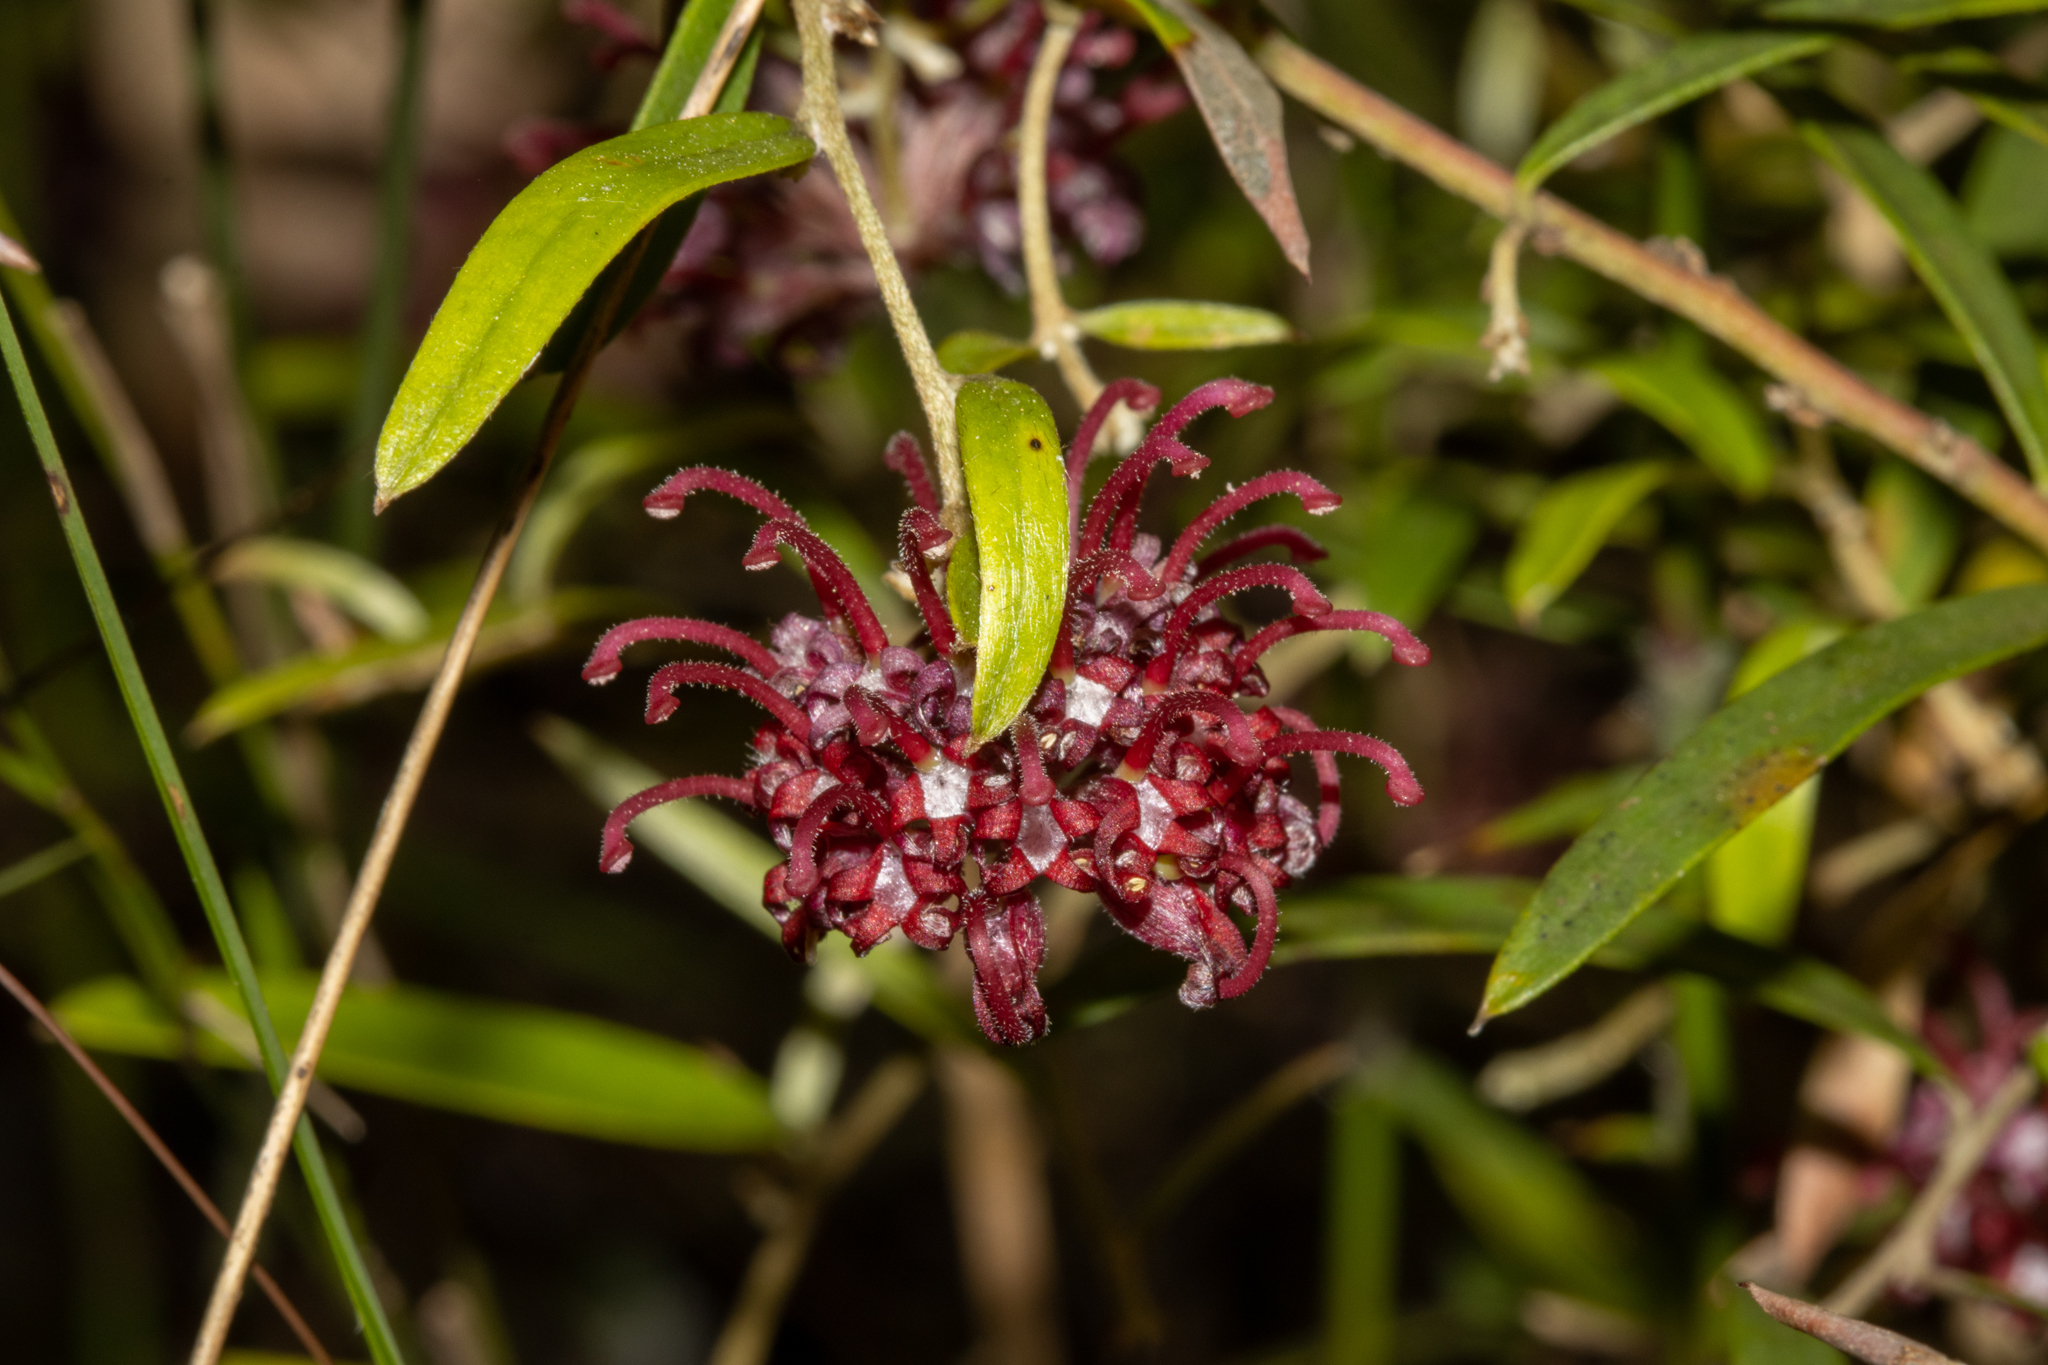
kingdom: Plantae
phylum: Tracheophyta
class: Magnoliopsida
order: Proteales
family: Proteaceae
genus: Grevillea
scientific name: Grevillea diffusa
